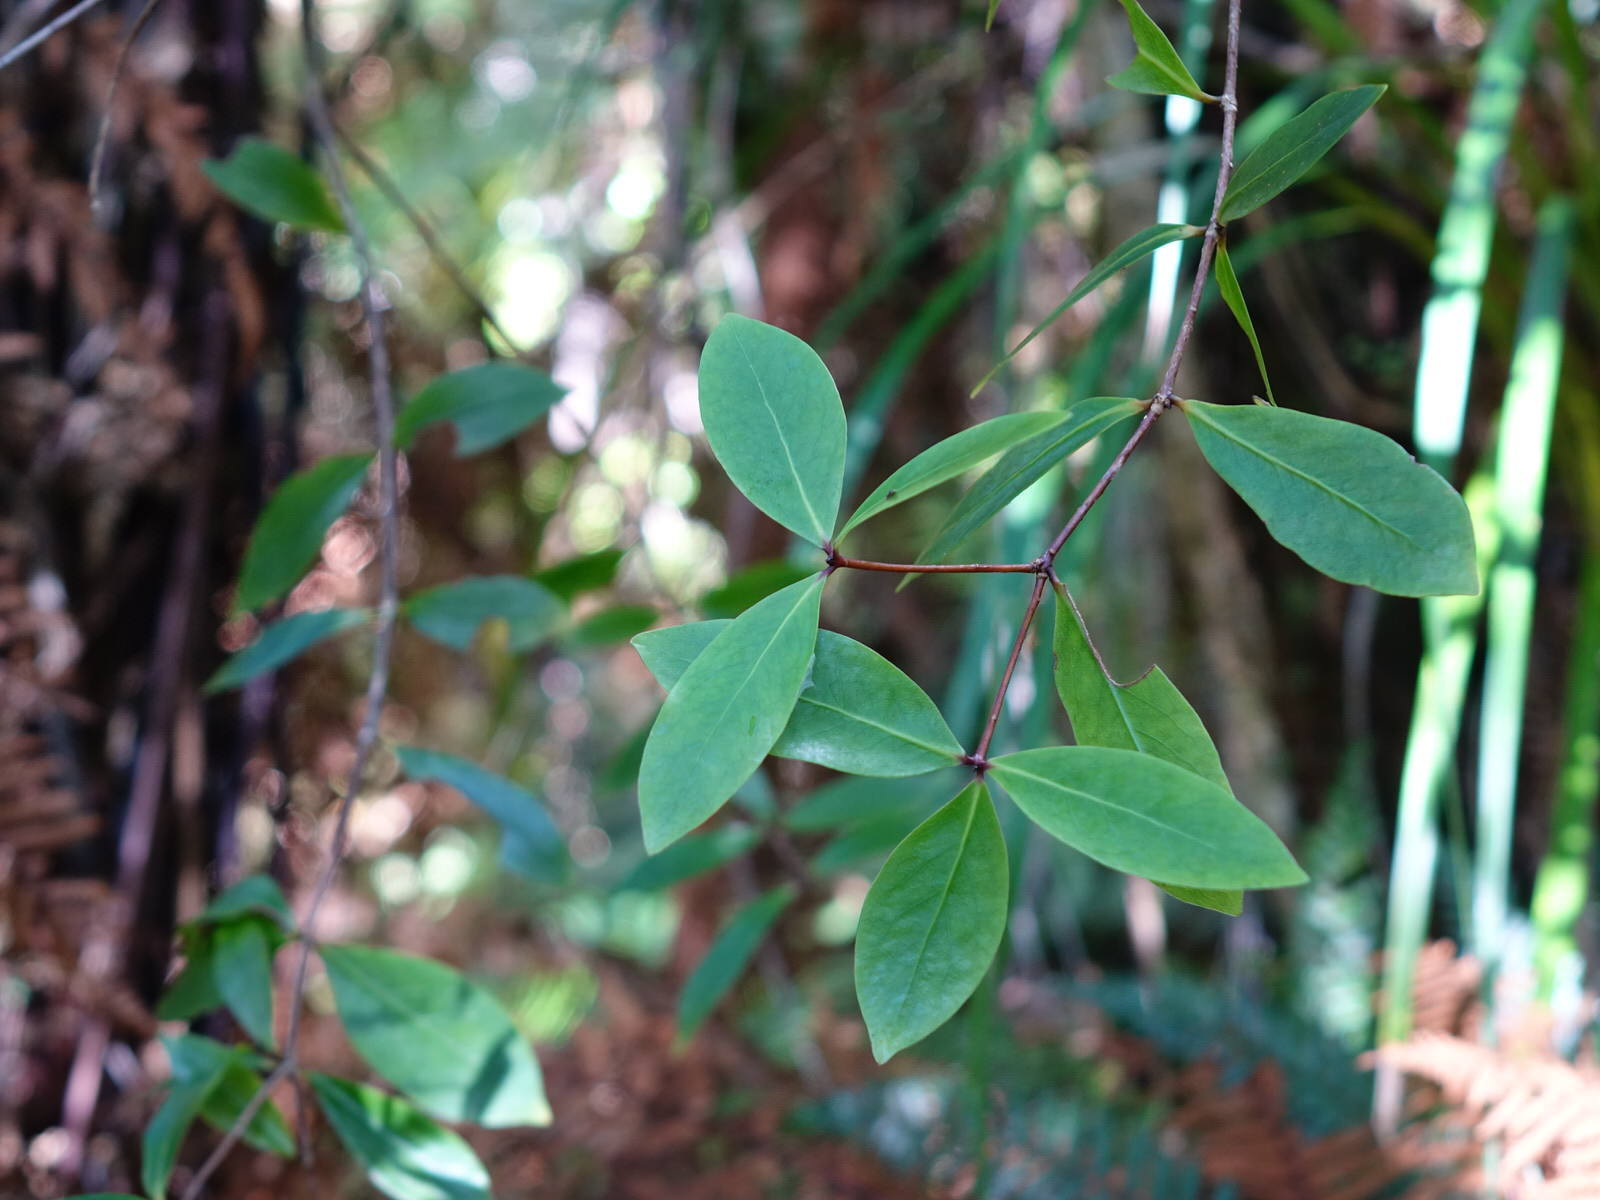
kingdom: Plantae
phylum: Tracheophyta
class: Magnoliopsida
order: Apiales
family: Pittosporaceae
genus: Pittosporum
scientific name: Pittosporum cornifolium
